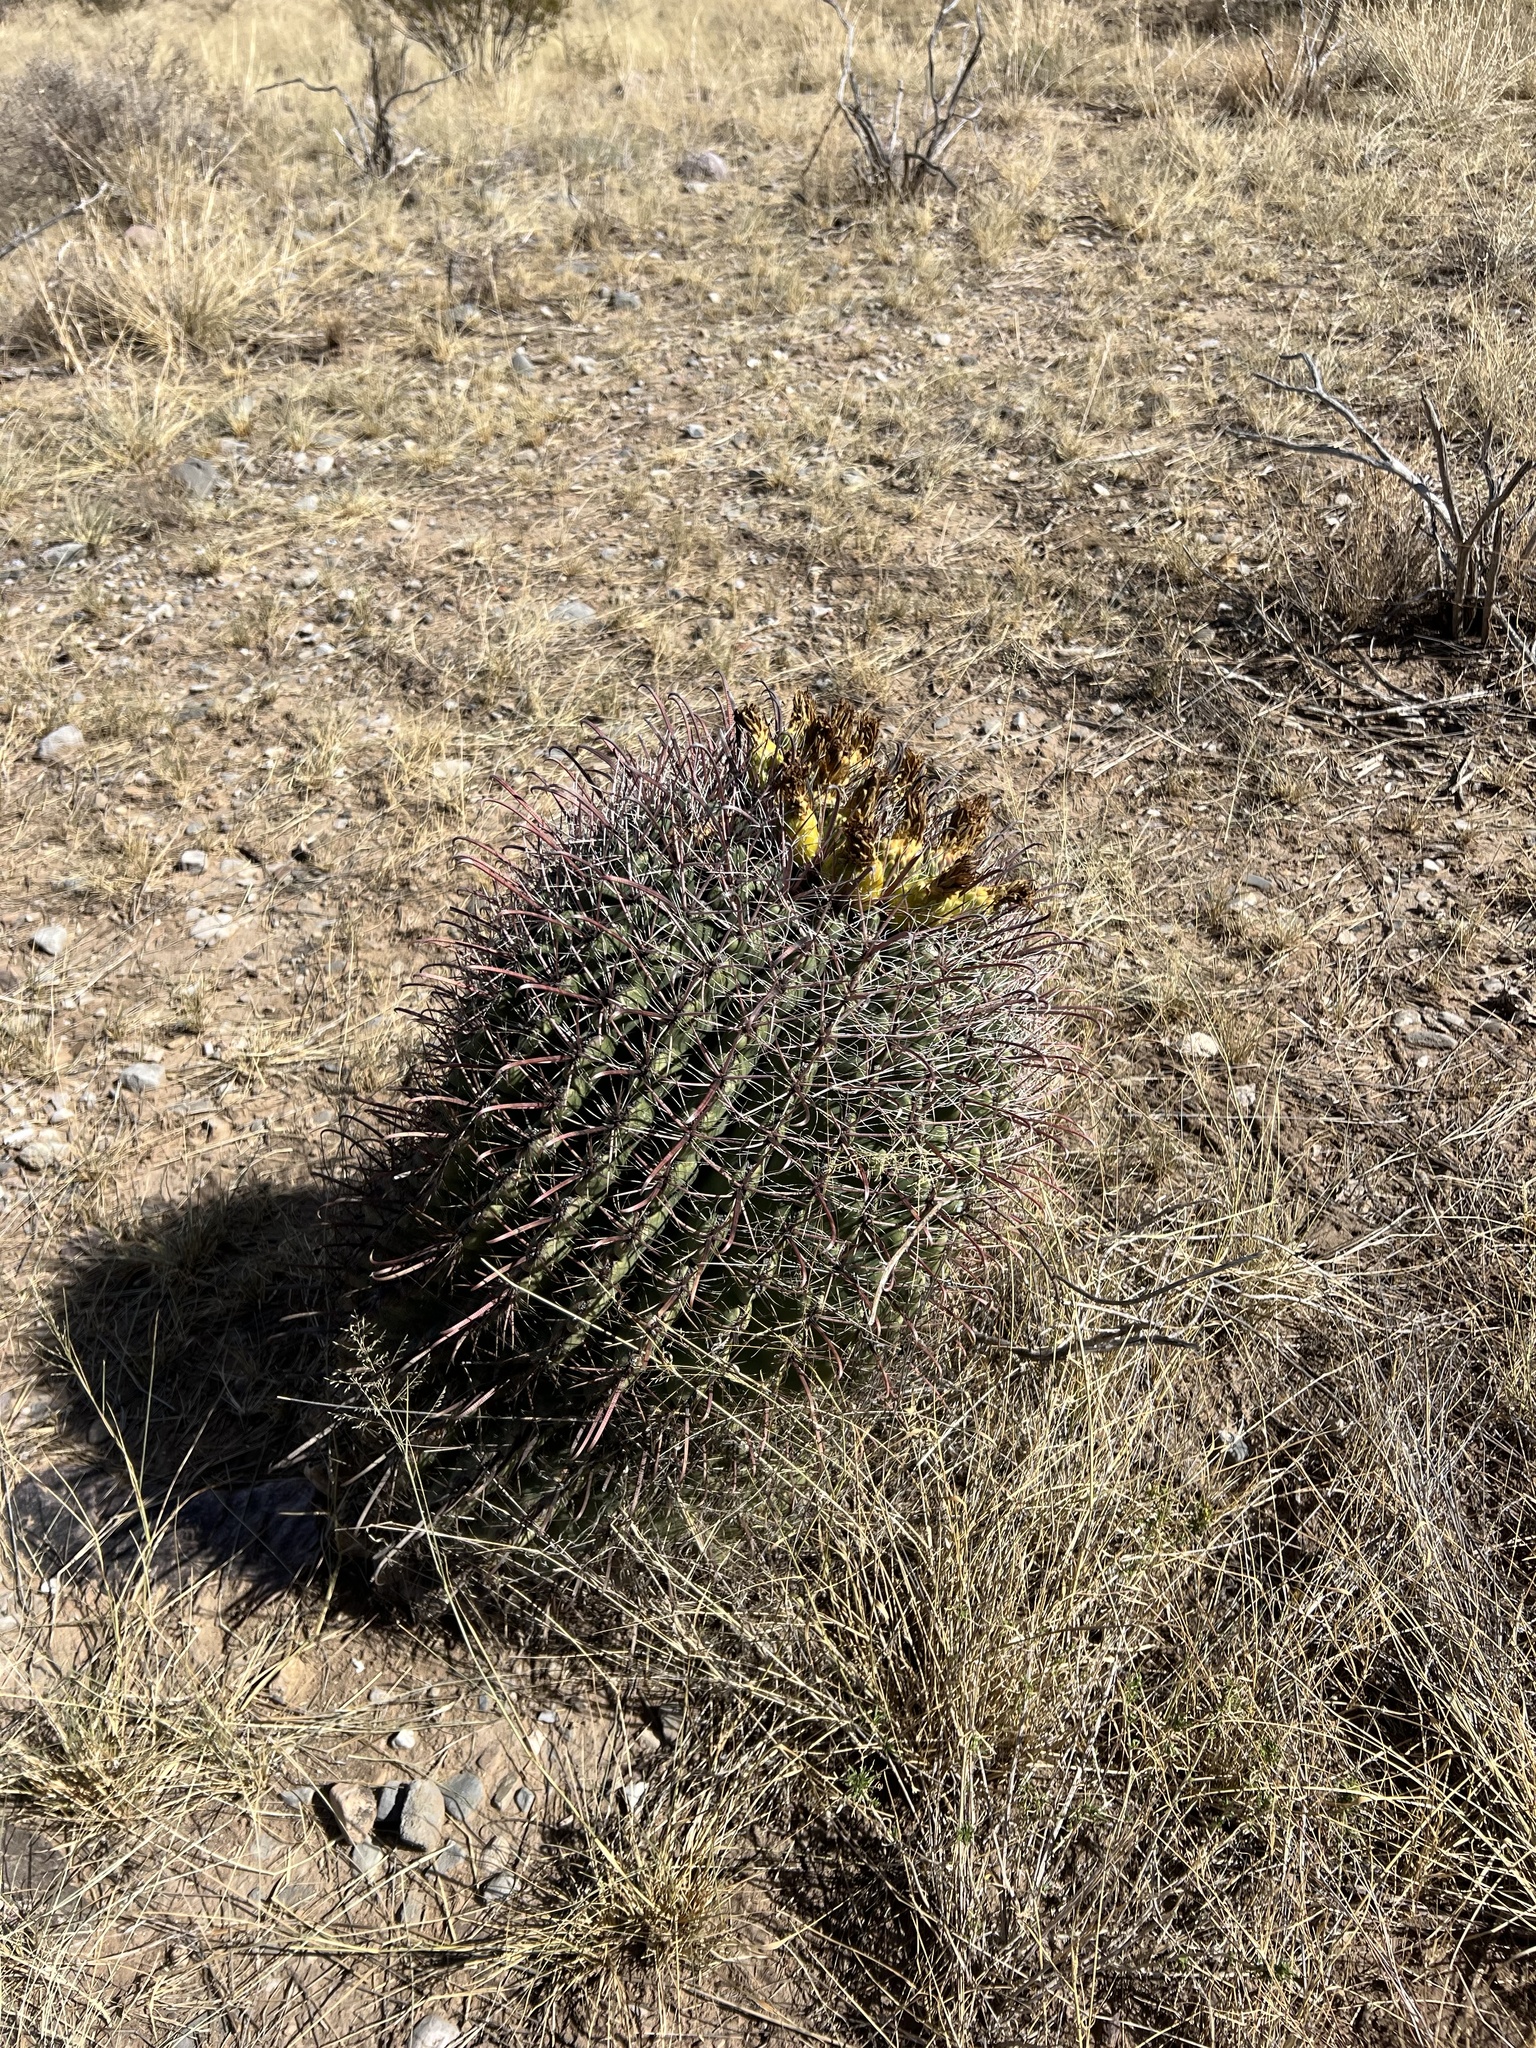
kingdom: Plantae
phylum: Tracheophyta
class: Magnoliopsida
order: Caryophyllales
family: Cactaceae
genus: Ferocactus
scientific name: Ferocactus wislizeni
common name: Candy barrel cactus
